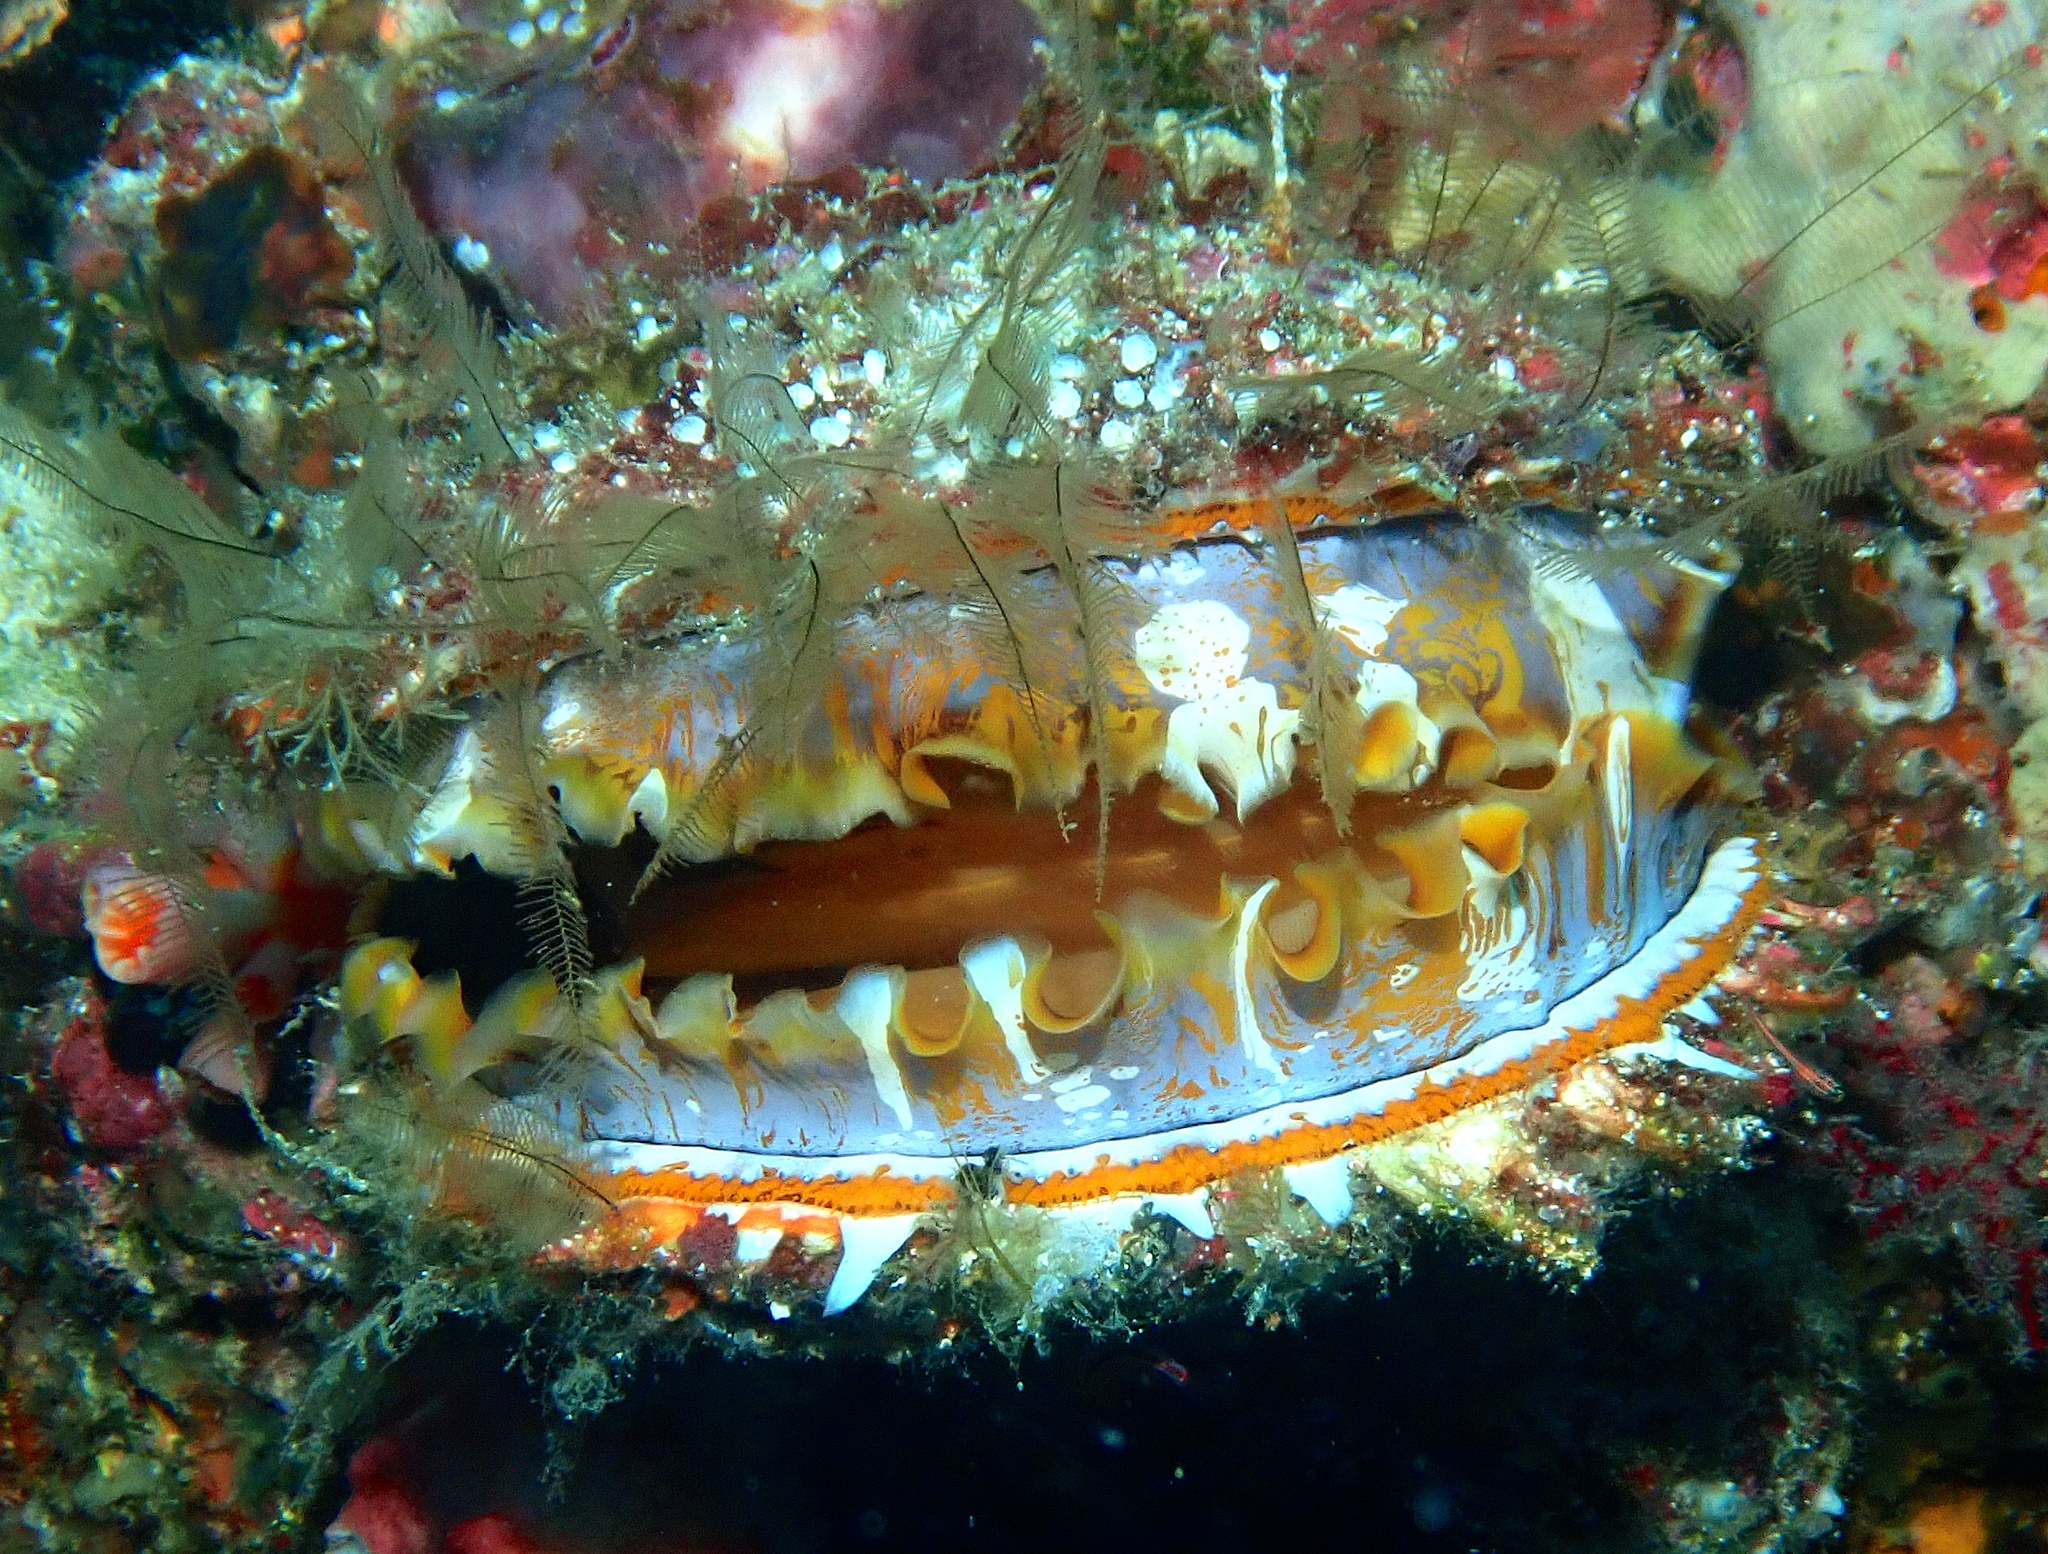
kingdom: Animalia
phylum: Mollusca
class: Bivalvia
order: Pectinida
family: Spondylidae
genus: Spondylus
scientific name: Spondylus varius
